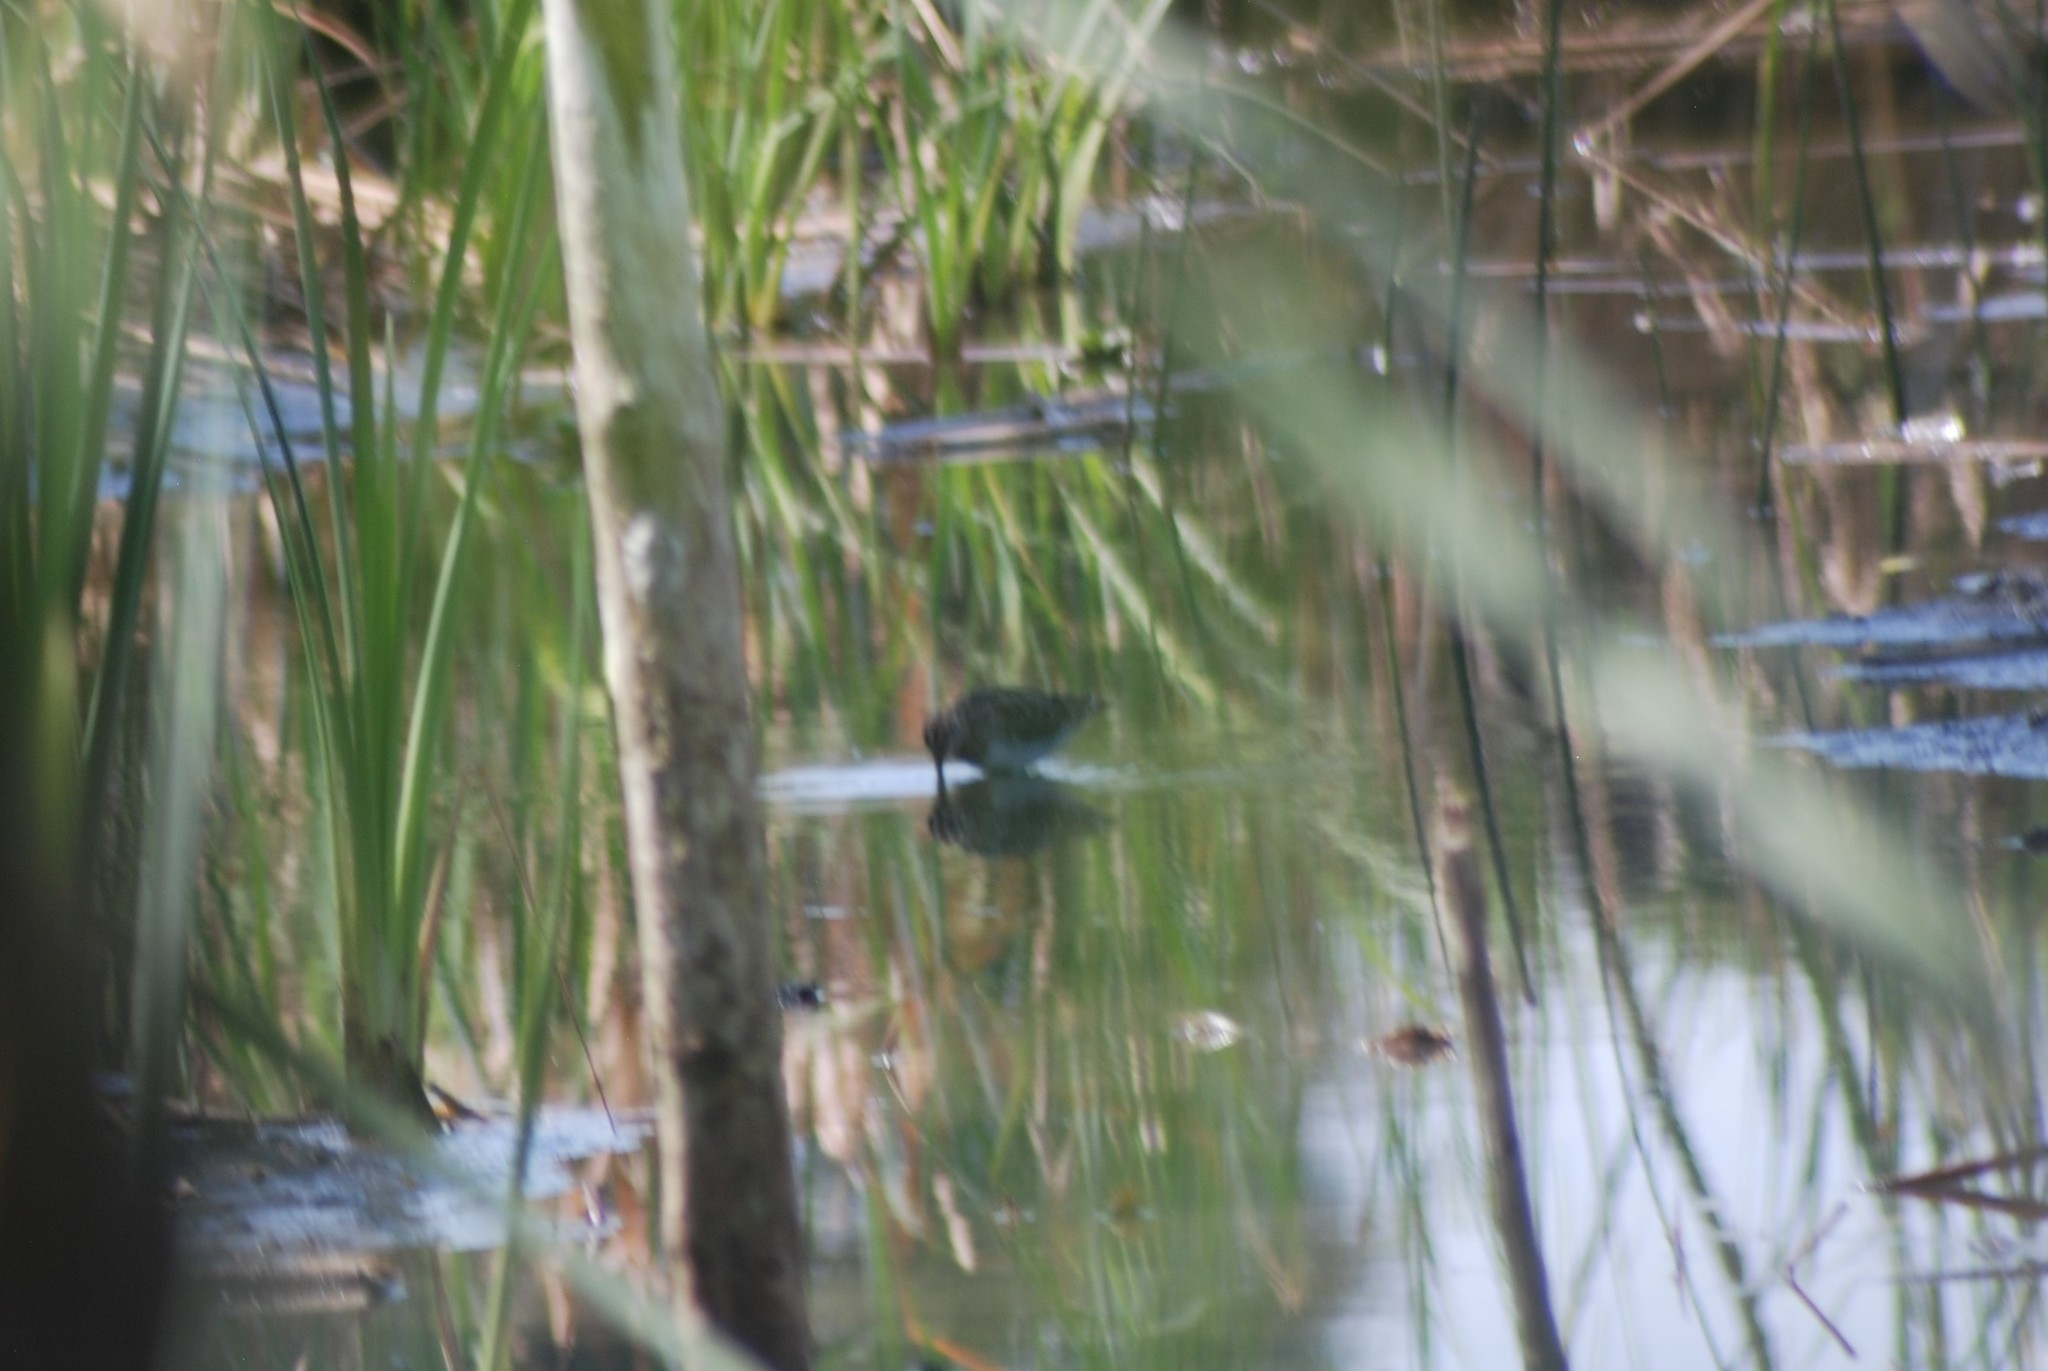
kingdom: Animalia
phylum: Chordata
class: Aves
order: Charadriiformes
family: Scolopacidae
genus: Gallinago
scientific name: Gallinago delicata
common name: Wilson's snipe
